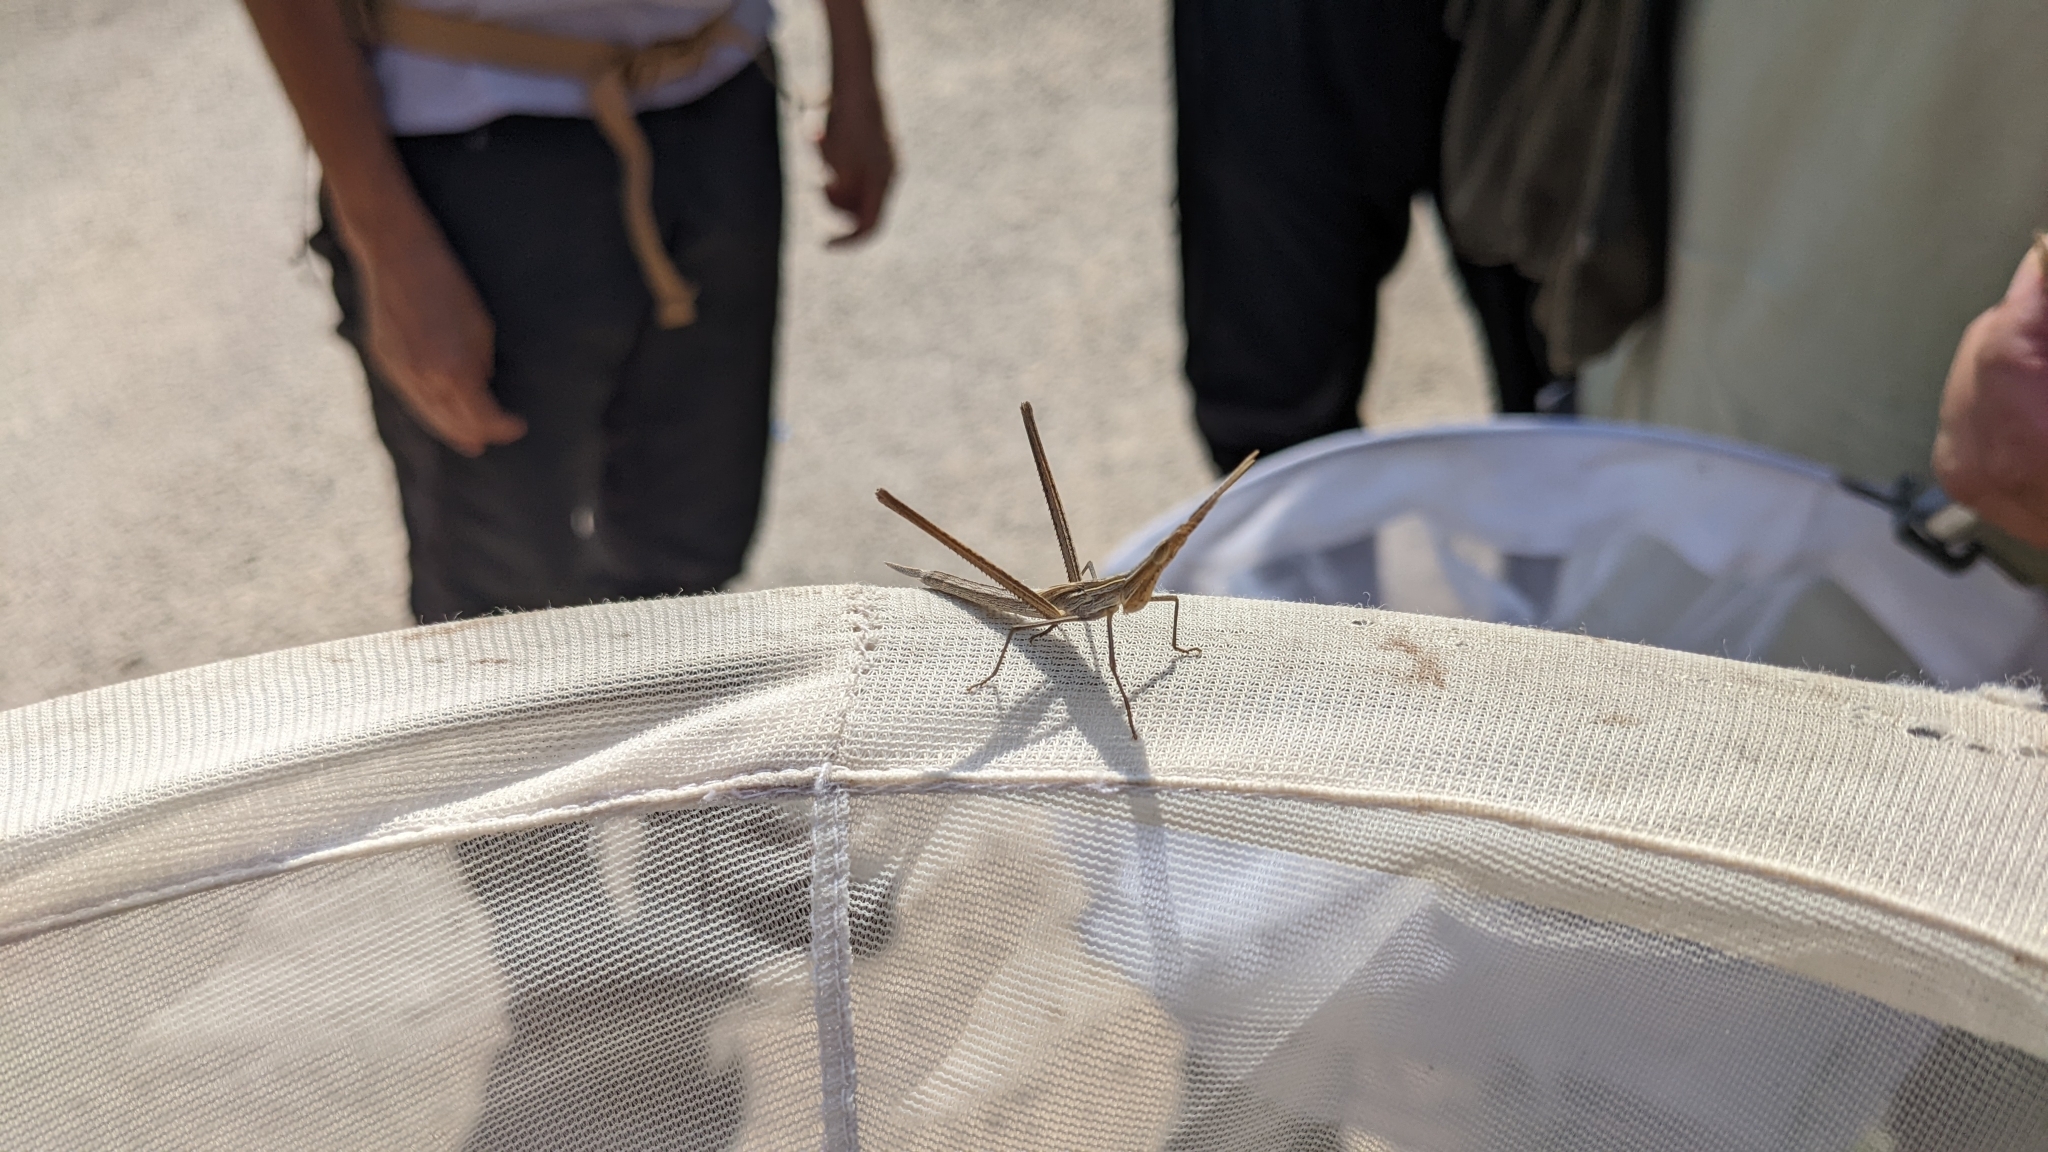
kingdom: Animalia
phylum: Arthropoda
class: Insecta
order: Orthoptera
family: Acrididae
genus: Acrida
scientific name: Acrida ungarica
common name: Common cone-headed grasshopper
